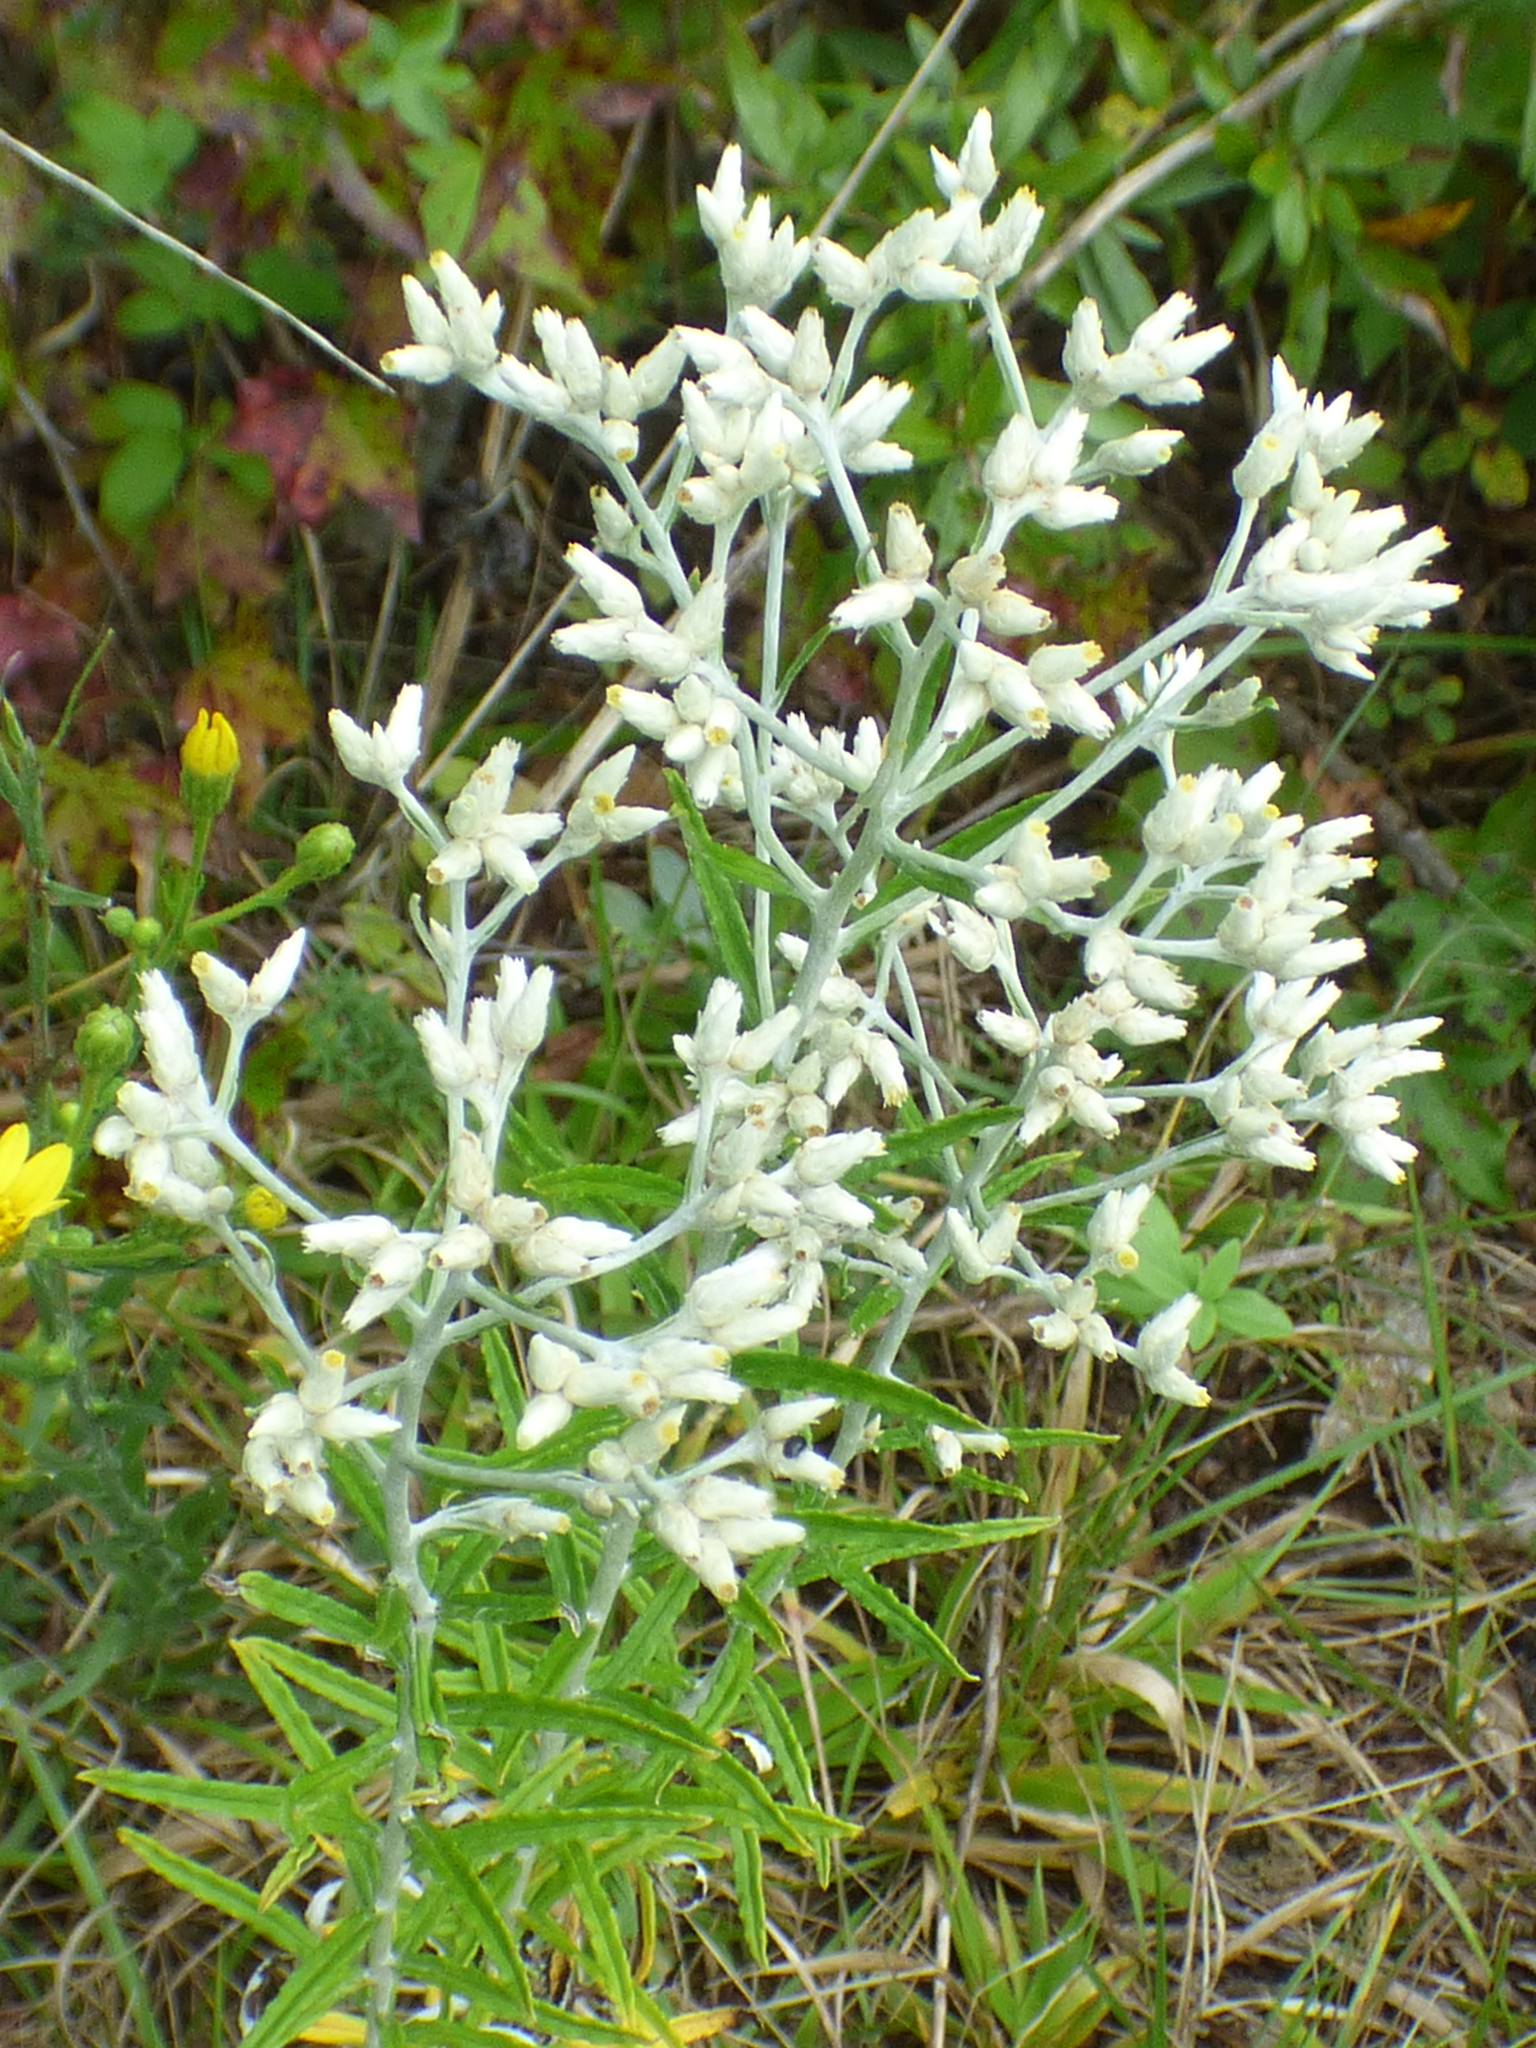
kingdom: Plantae
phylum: Tracheophyta
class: Magnoliopsida
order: Asterales
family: Asteraceae
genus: Pseudognaphalium
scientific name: Pseudognaphalium obtusifolium
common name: Eastern rabbit-tobacco
